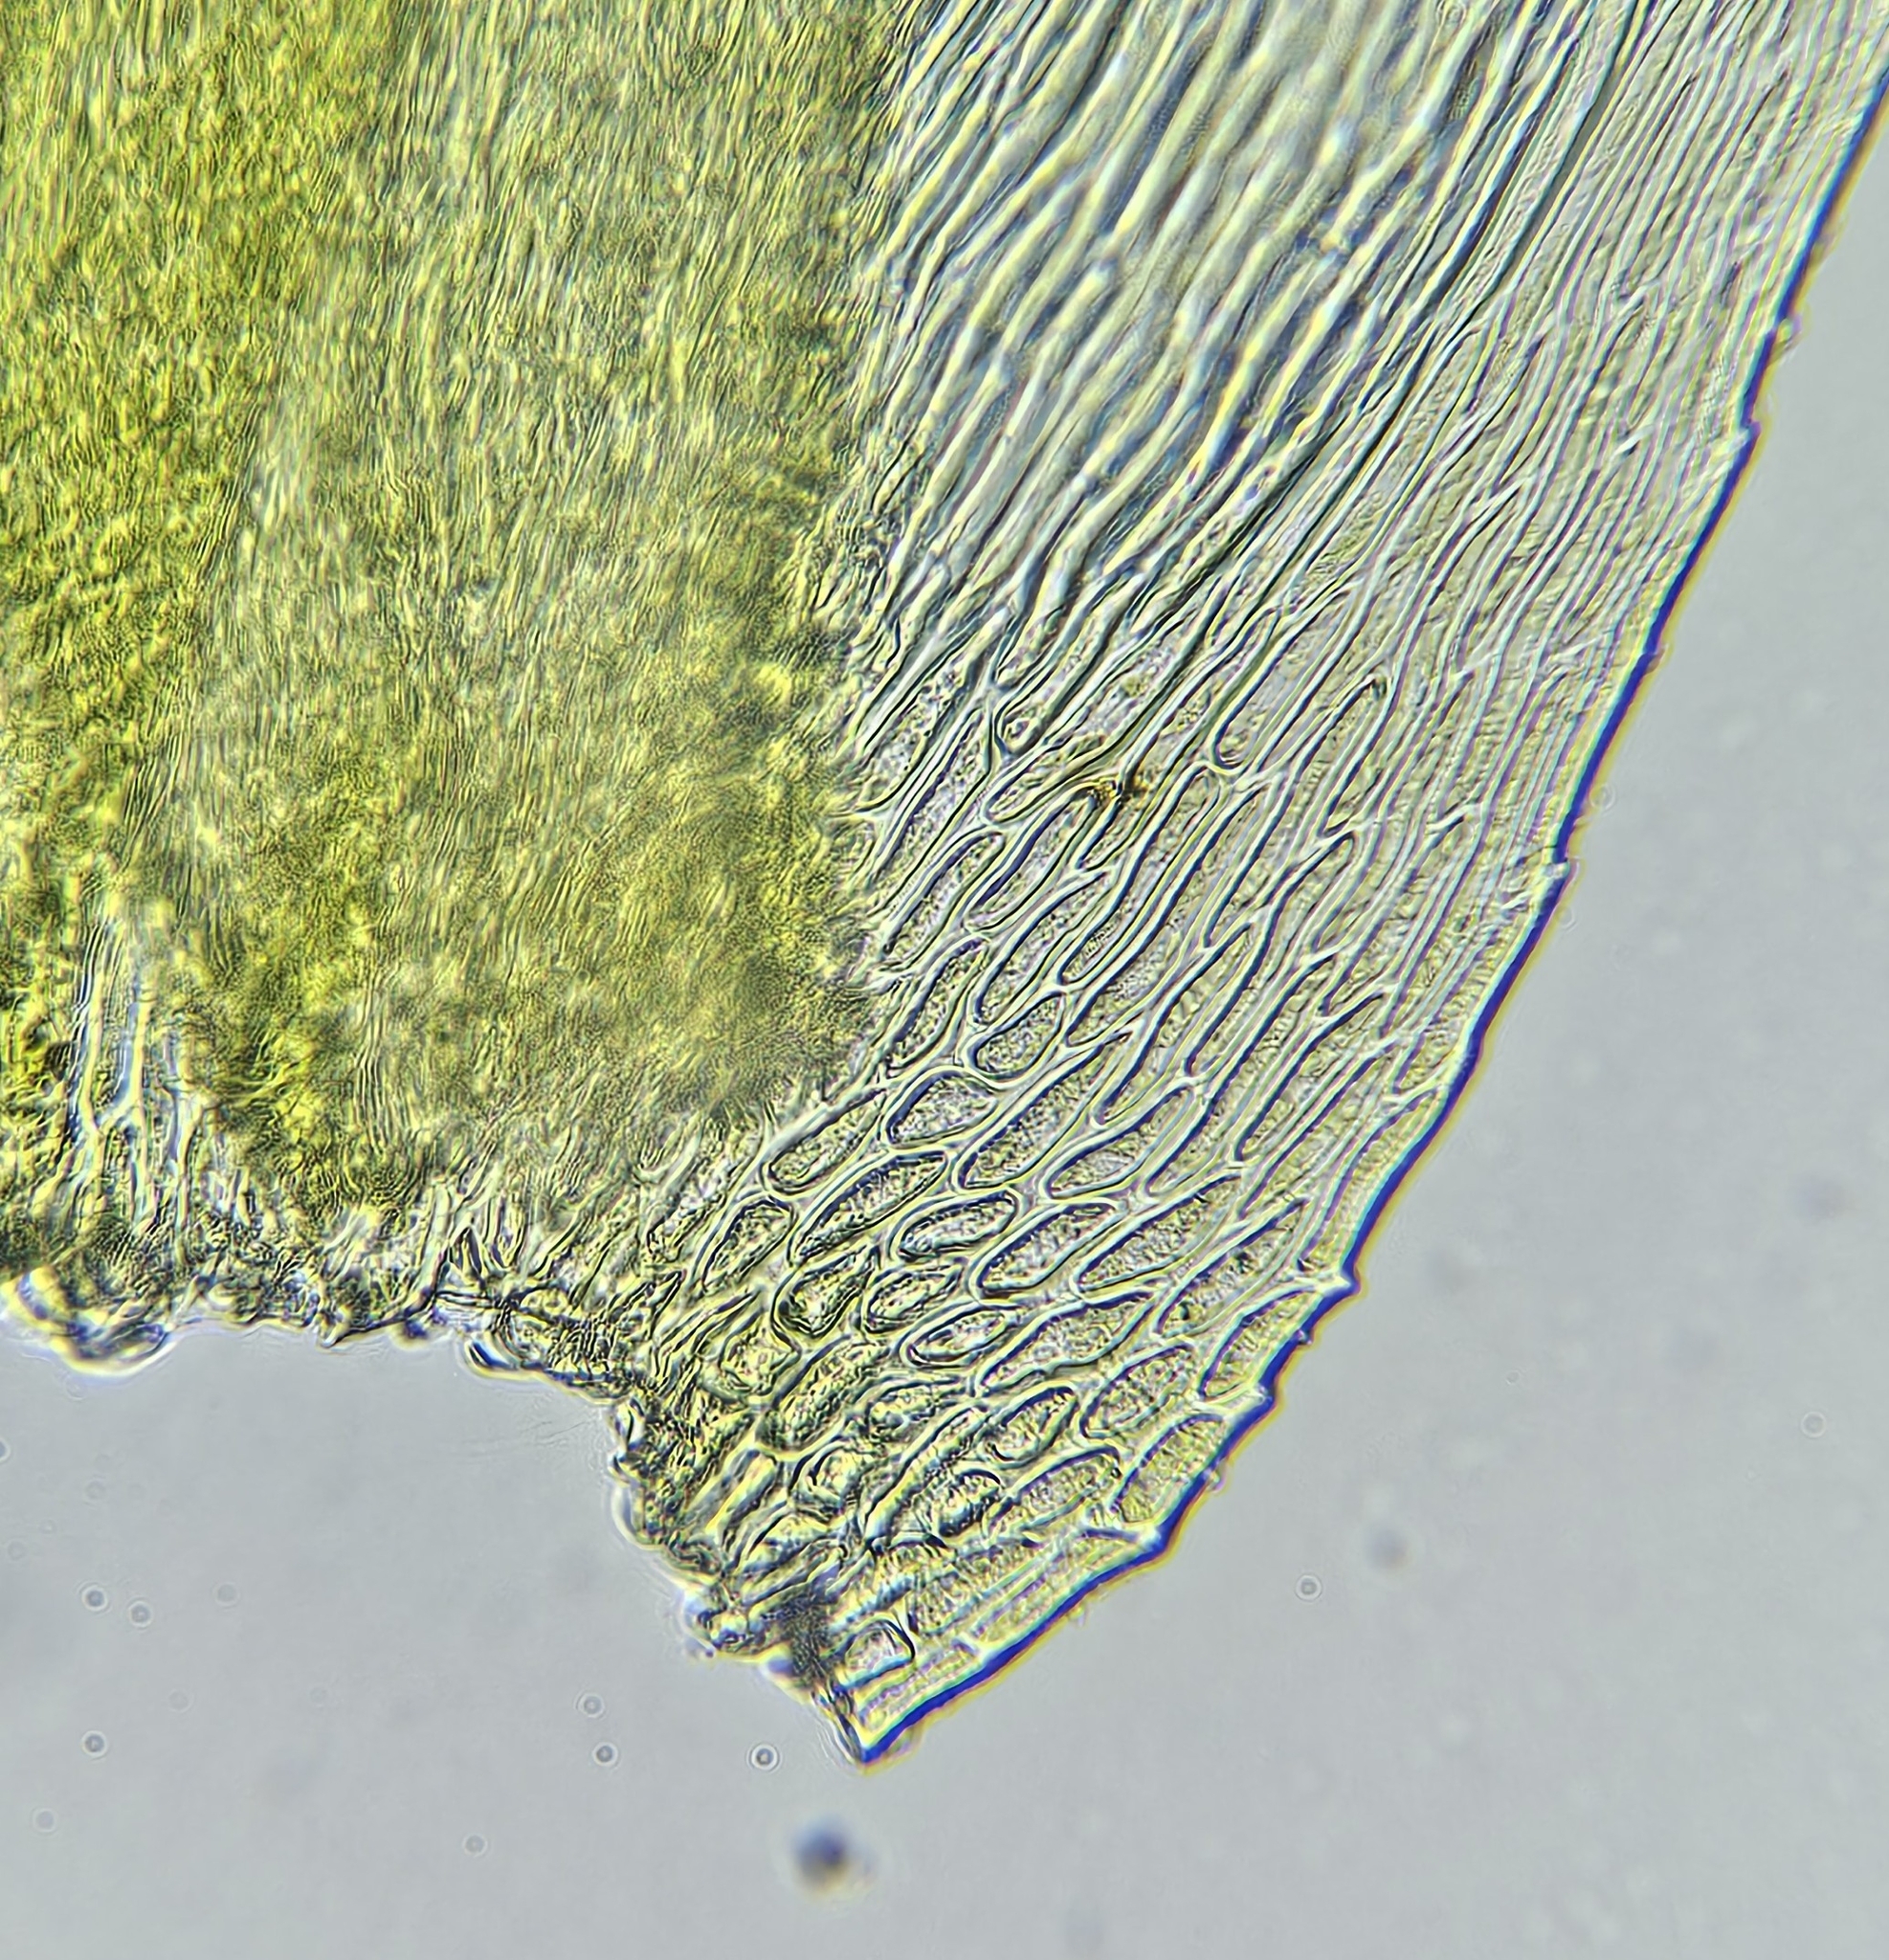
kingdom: Plantae
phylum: Bryophyta
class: Bryopsida
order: Hypnales
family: Brachytheciaceae
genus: Homalothecium
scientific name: Homalothecium lutescens
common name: Yellow feather-moss
